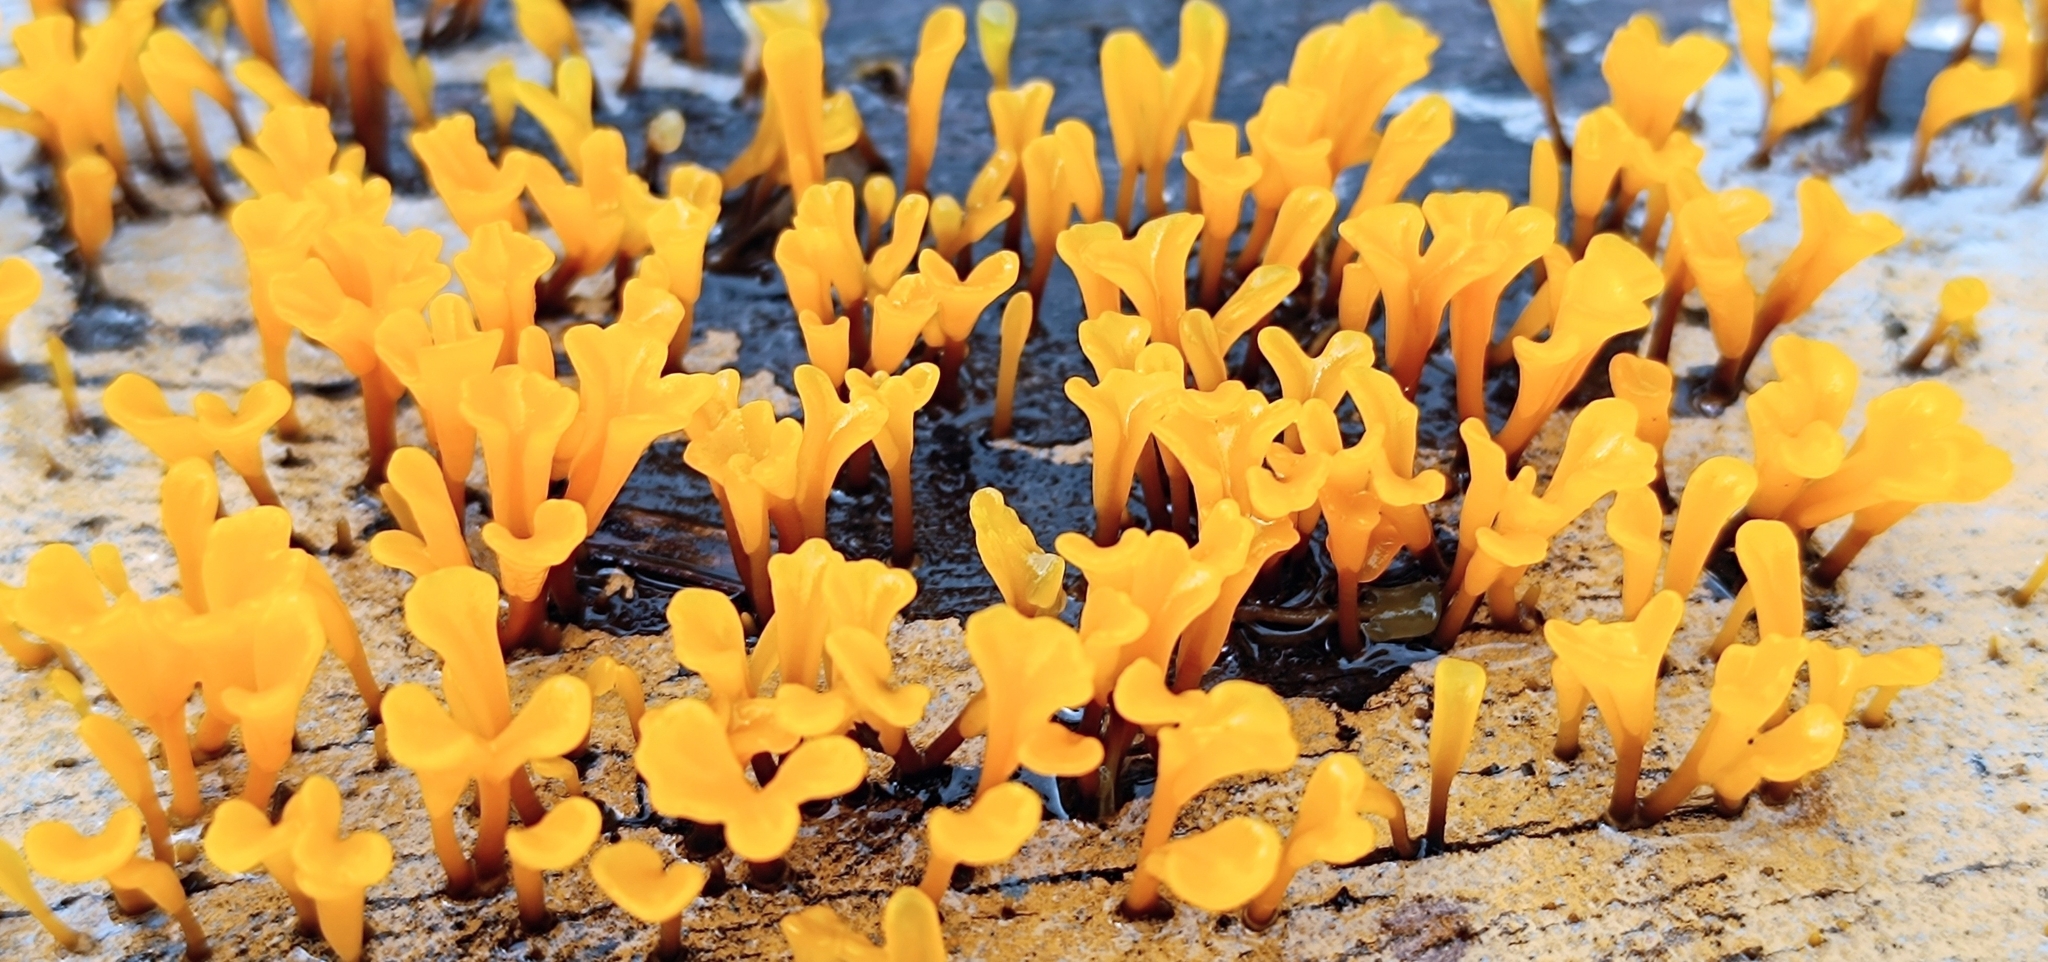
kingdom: Fungi
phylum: Basidiomycota
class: Dacrymycetes
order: Dacrymycetales
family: Dacrymycetaceae
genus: Dacrymyces
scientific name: Dacrymyces spathularius
